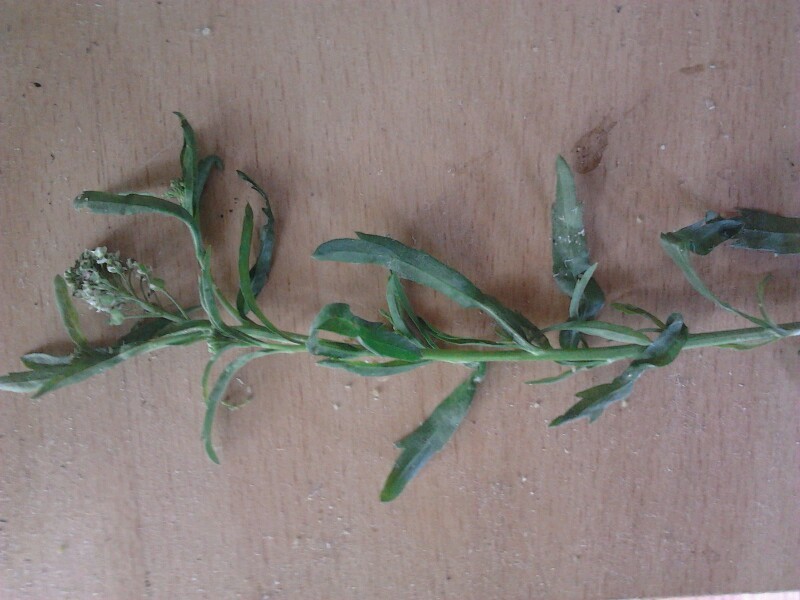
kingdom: Plantae
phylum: Tracheophyta
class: Magnoliopsida
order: Brassicales
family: Brassicaceae
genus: Lepidium
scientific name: Lepidium virginicum
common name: Least pepperwort
